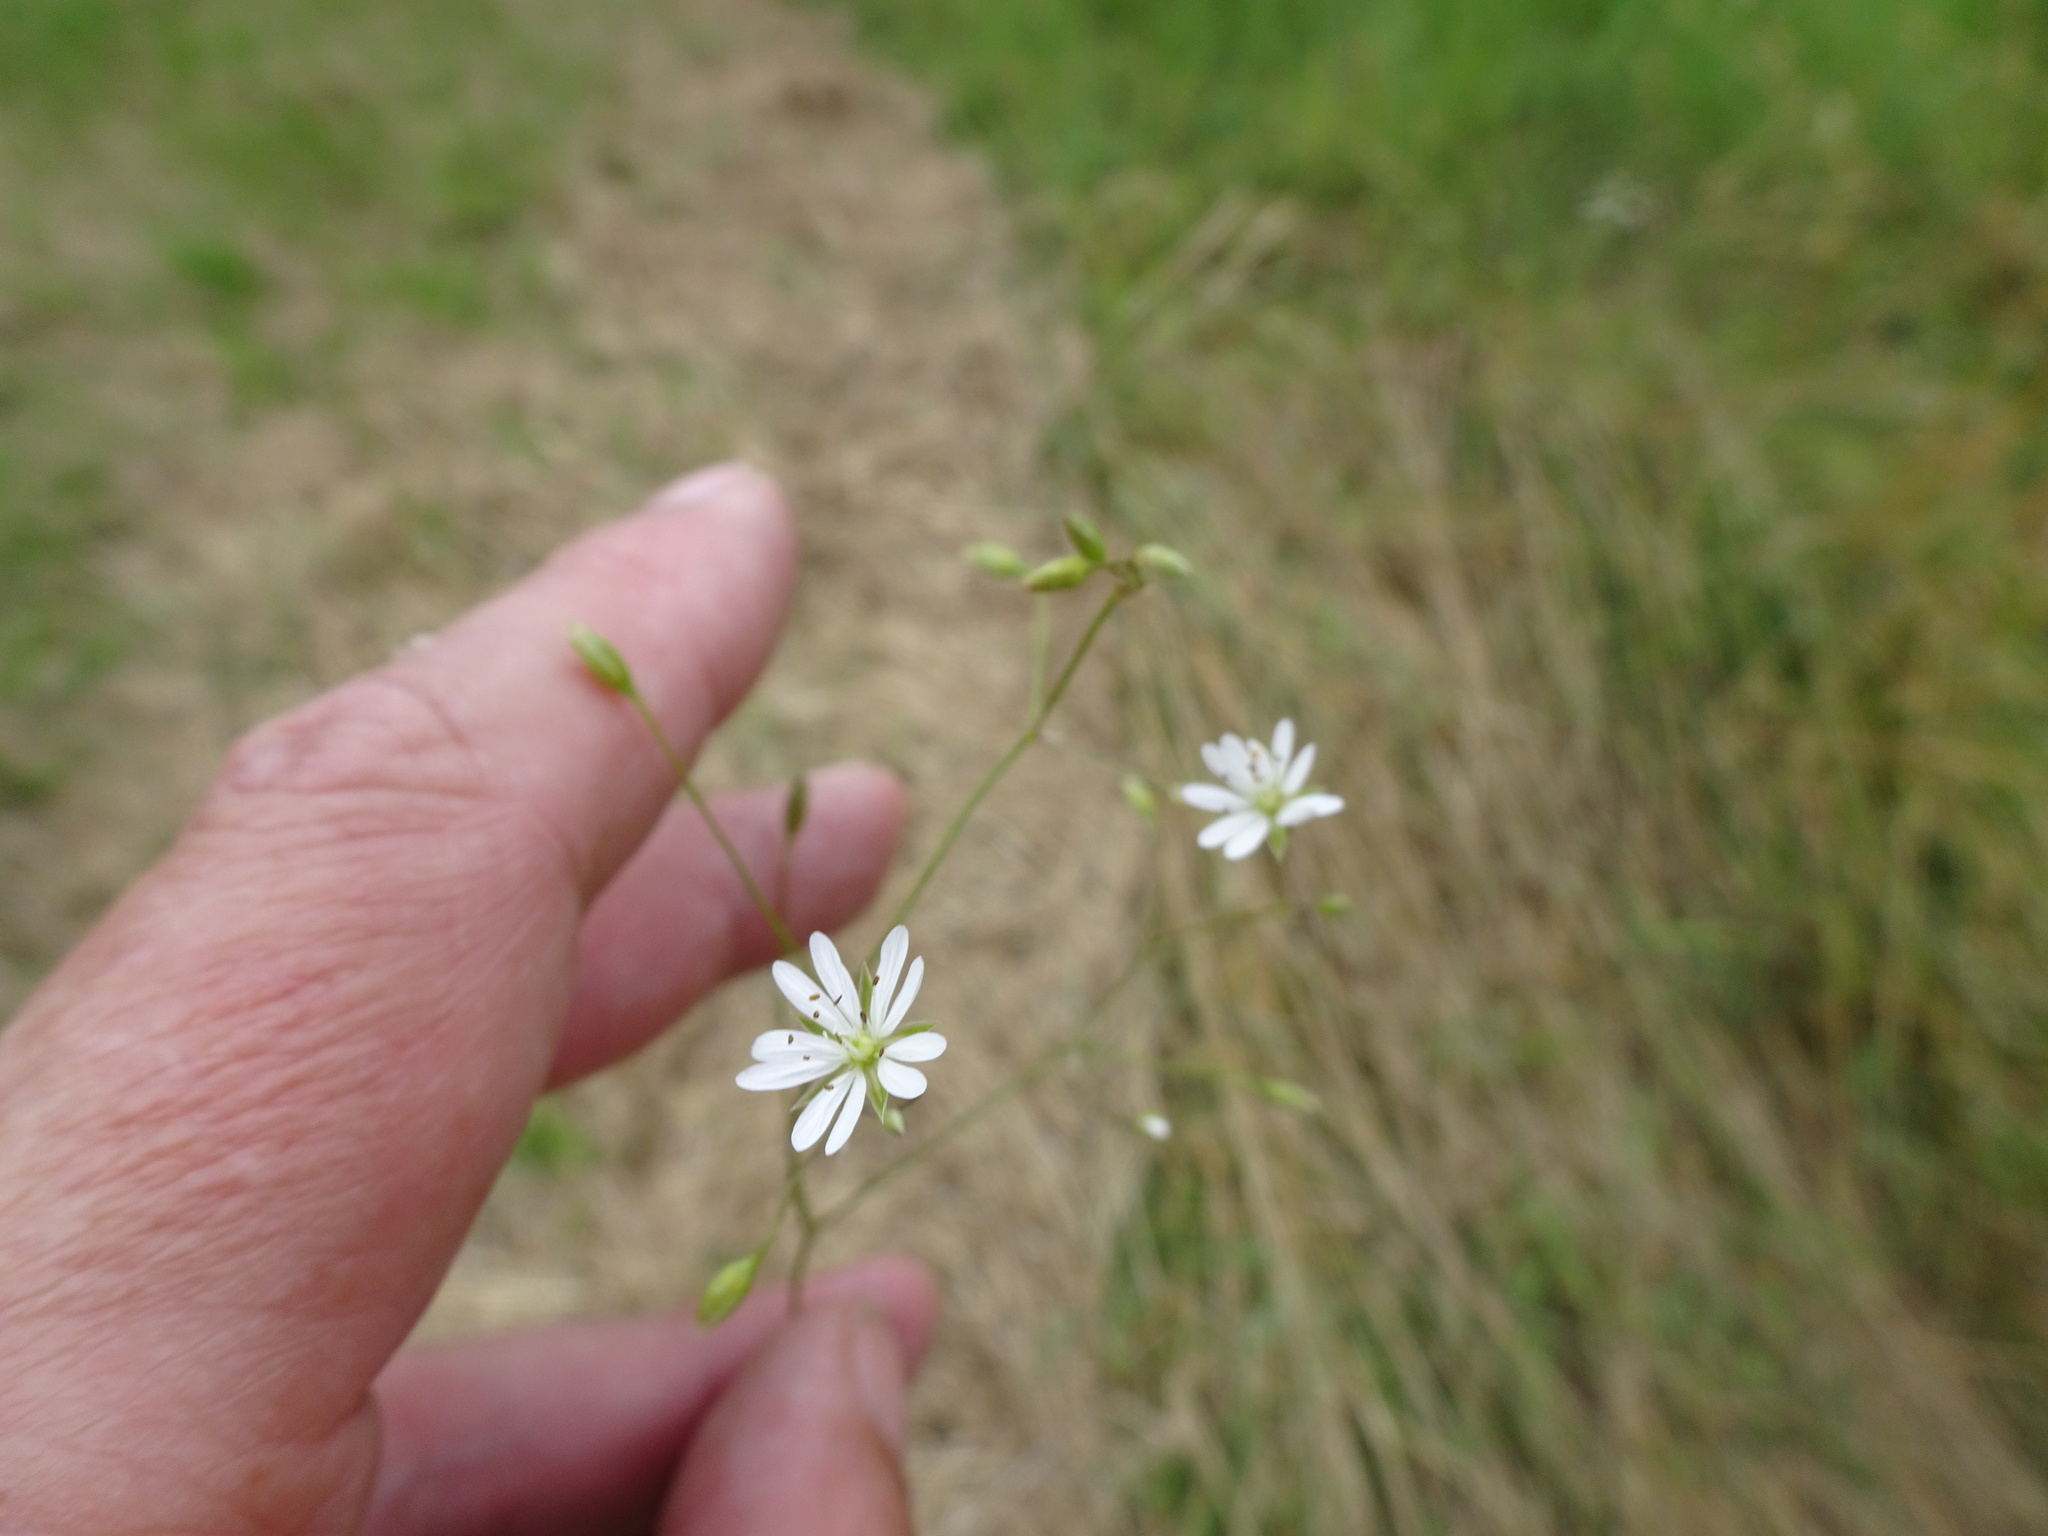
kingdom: Plantae
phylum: Tracheophyta
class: Magnoliopsida
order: Caryophyllales
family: Caryophyllaceae
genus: Stellaria
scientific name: Stellaria graminea
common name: Grass-like starwort
